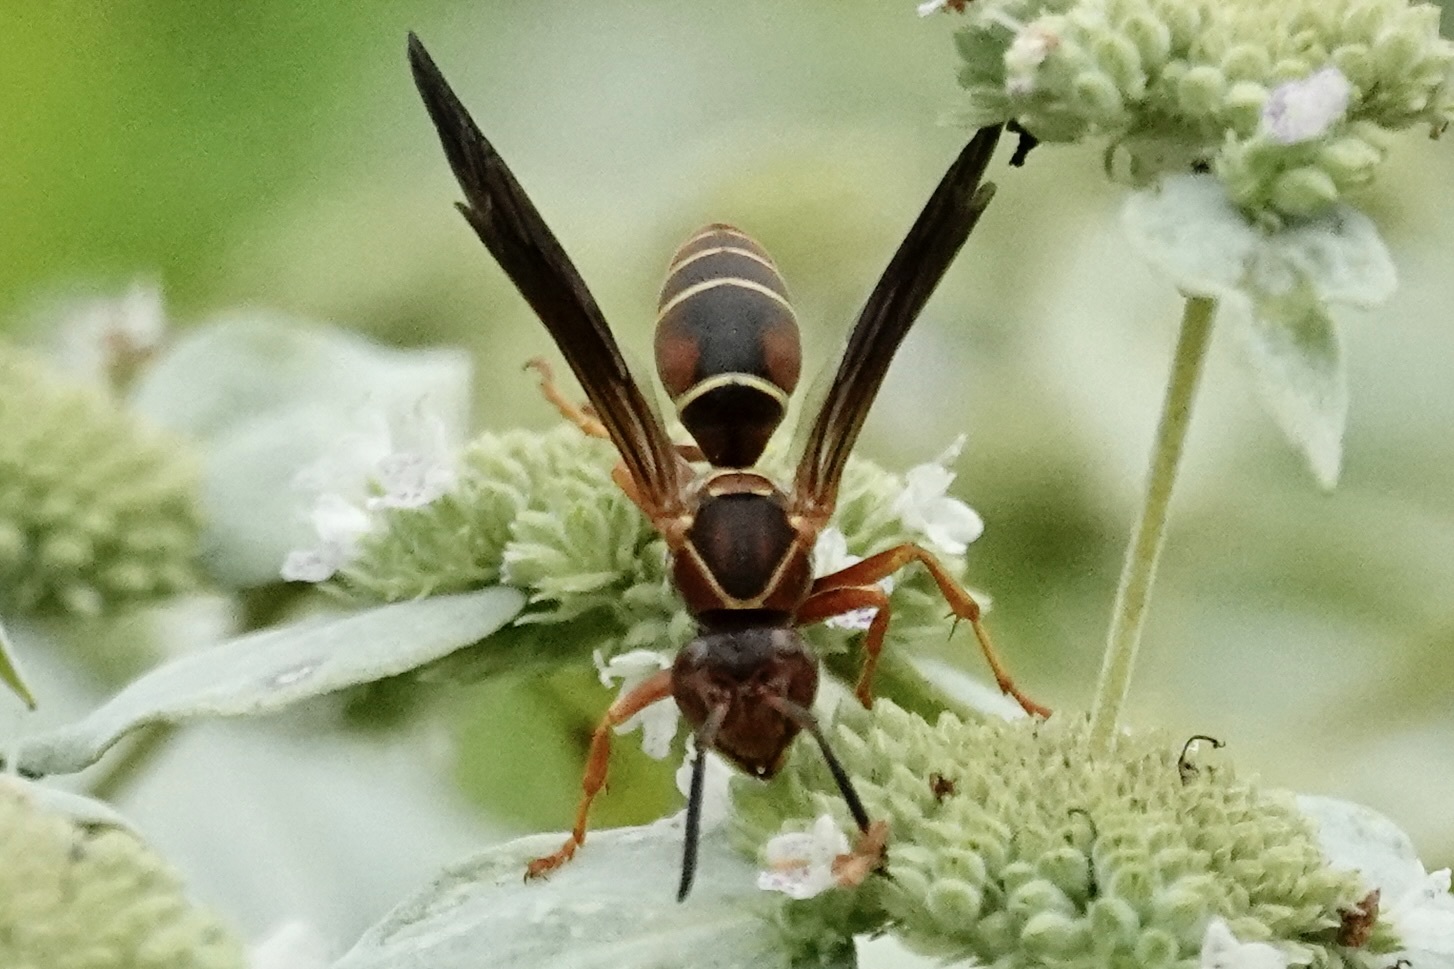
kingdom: Animalia
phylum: Arthropoda
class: Insecta
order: Hymenoptera
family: Eumenidae
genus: Polistes
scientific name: Polistes fuscatus
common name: Dark paper wasp
